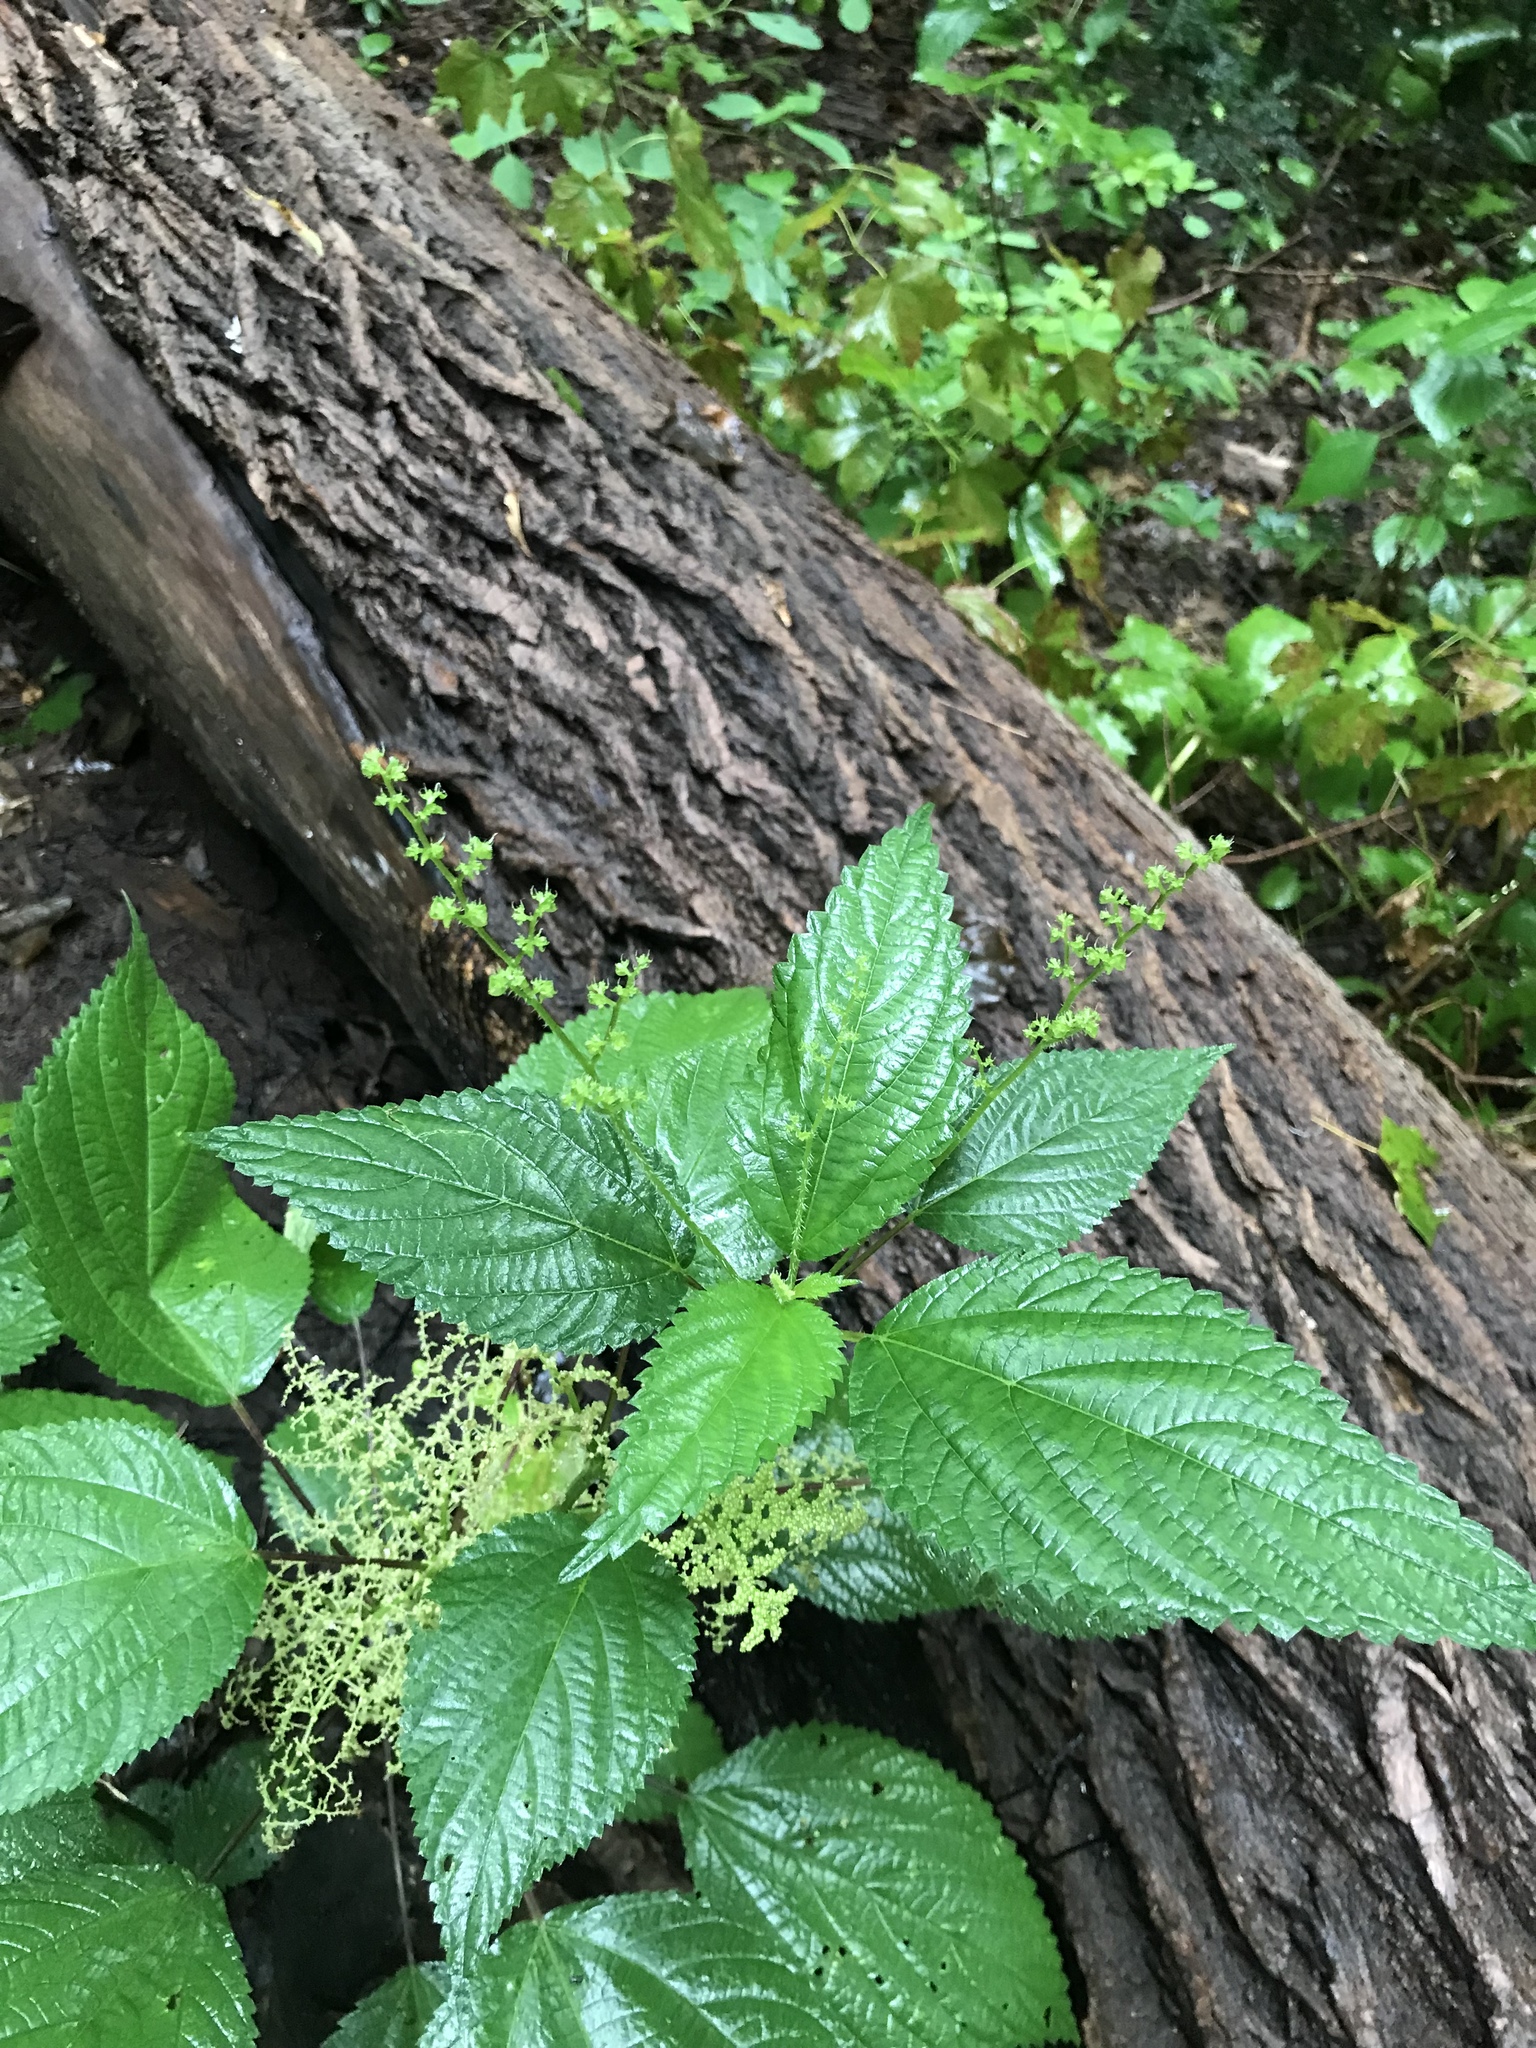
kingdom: Plantae
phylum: Tracheophyta
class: Magnoliopsida
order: Rosales
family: Urticaceae
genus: Laportea
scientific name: Laportea canadensis
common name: Canada nettle
